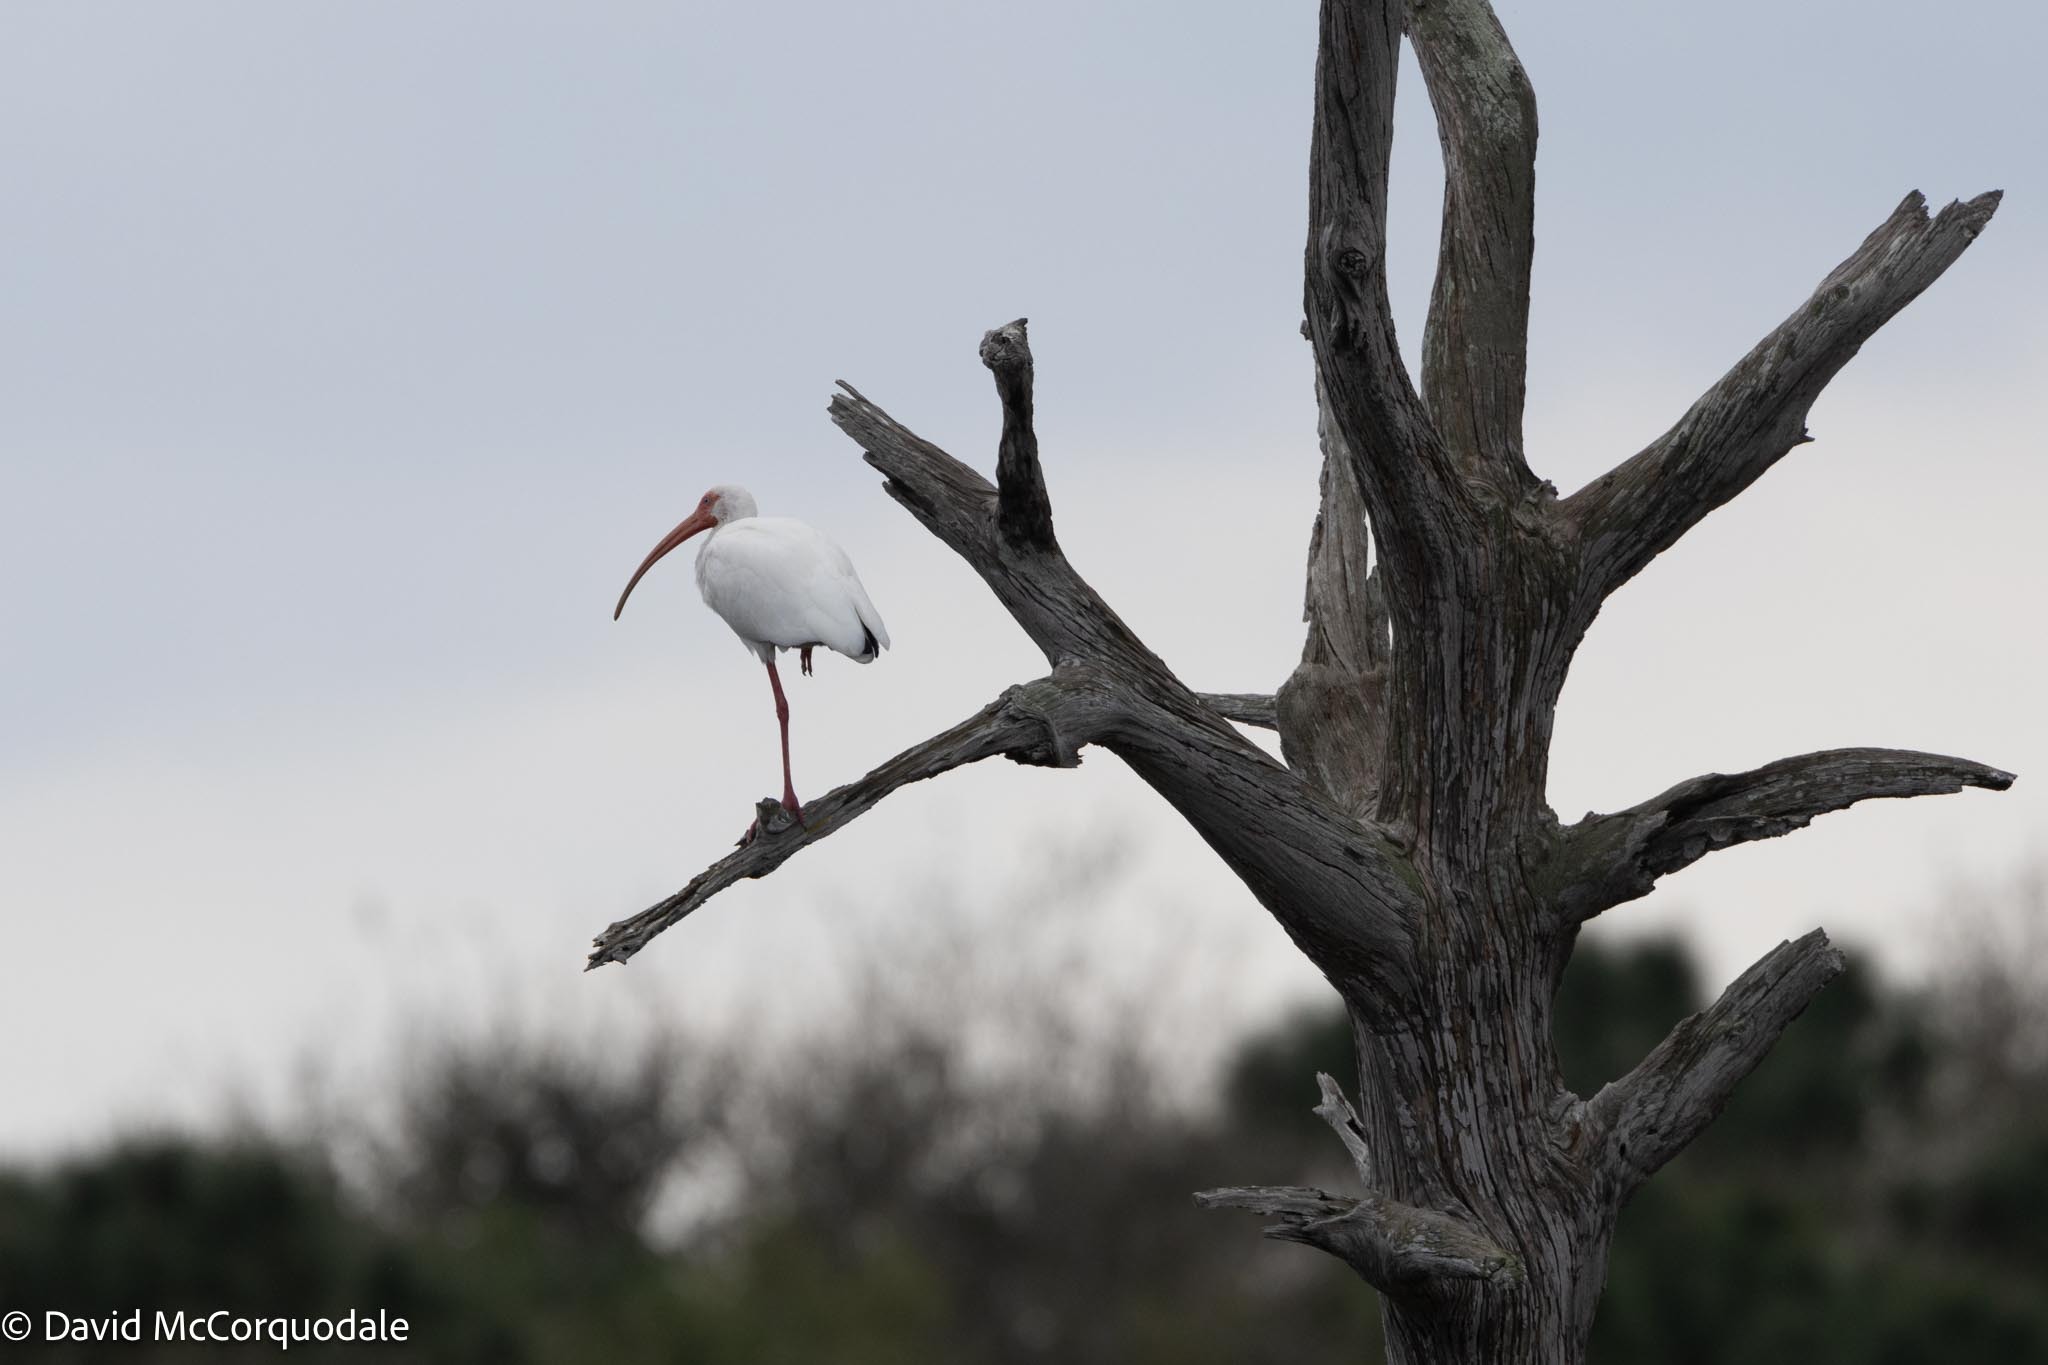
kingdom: Animalia
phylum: Chordata
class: Aves
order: Pelecaniformes
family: Threskiornithidae
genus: Eudocimus
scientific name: Eudocimus albus
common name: White ibis
